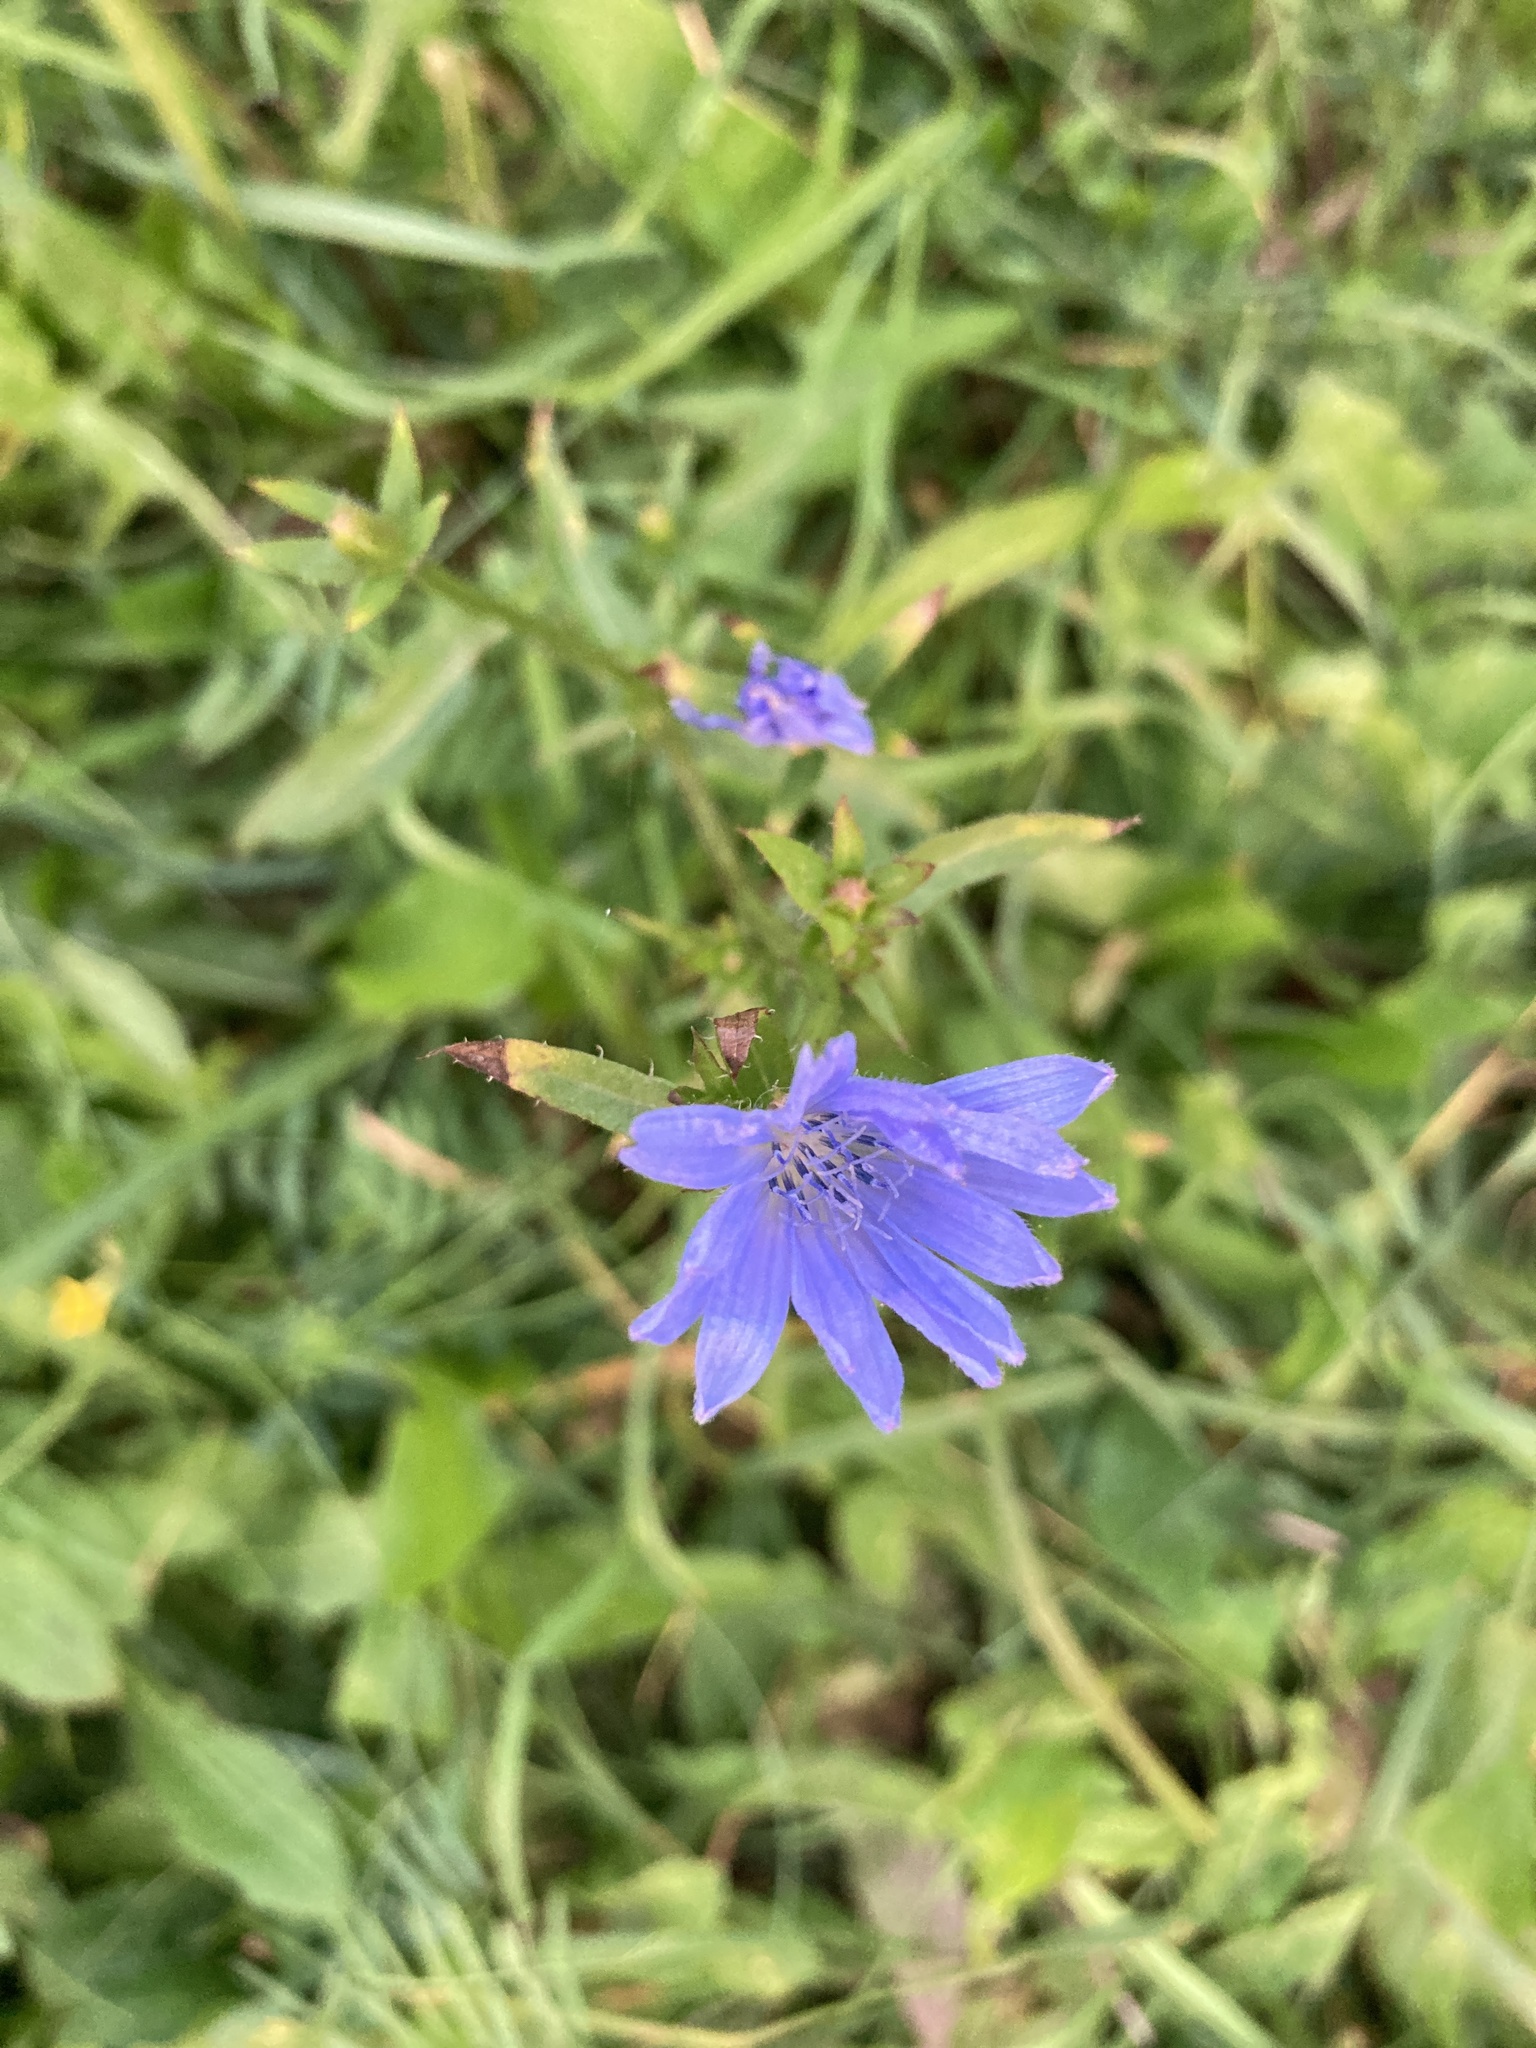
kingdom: Plantae
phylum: Tracheophyta
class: Magnoliopsida
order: Asterales
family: Asteraceae
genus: Cichorium
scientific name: Cichorium intybus
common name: Chicory
